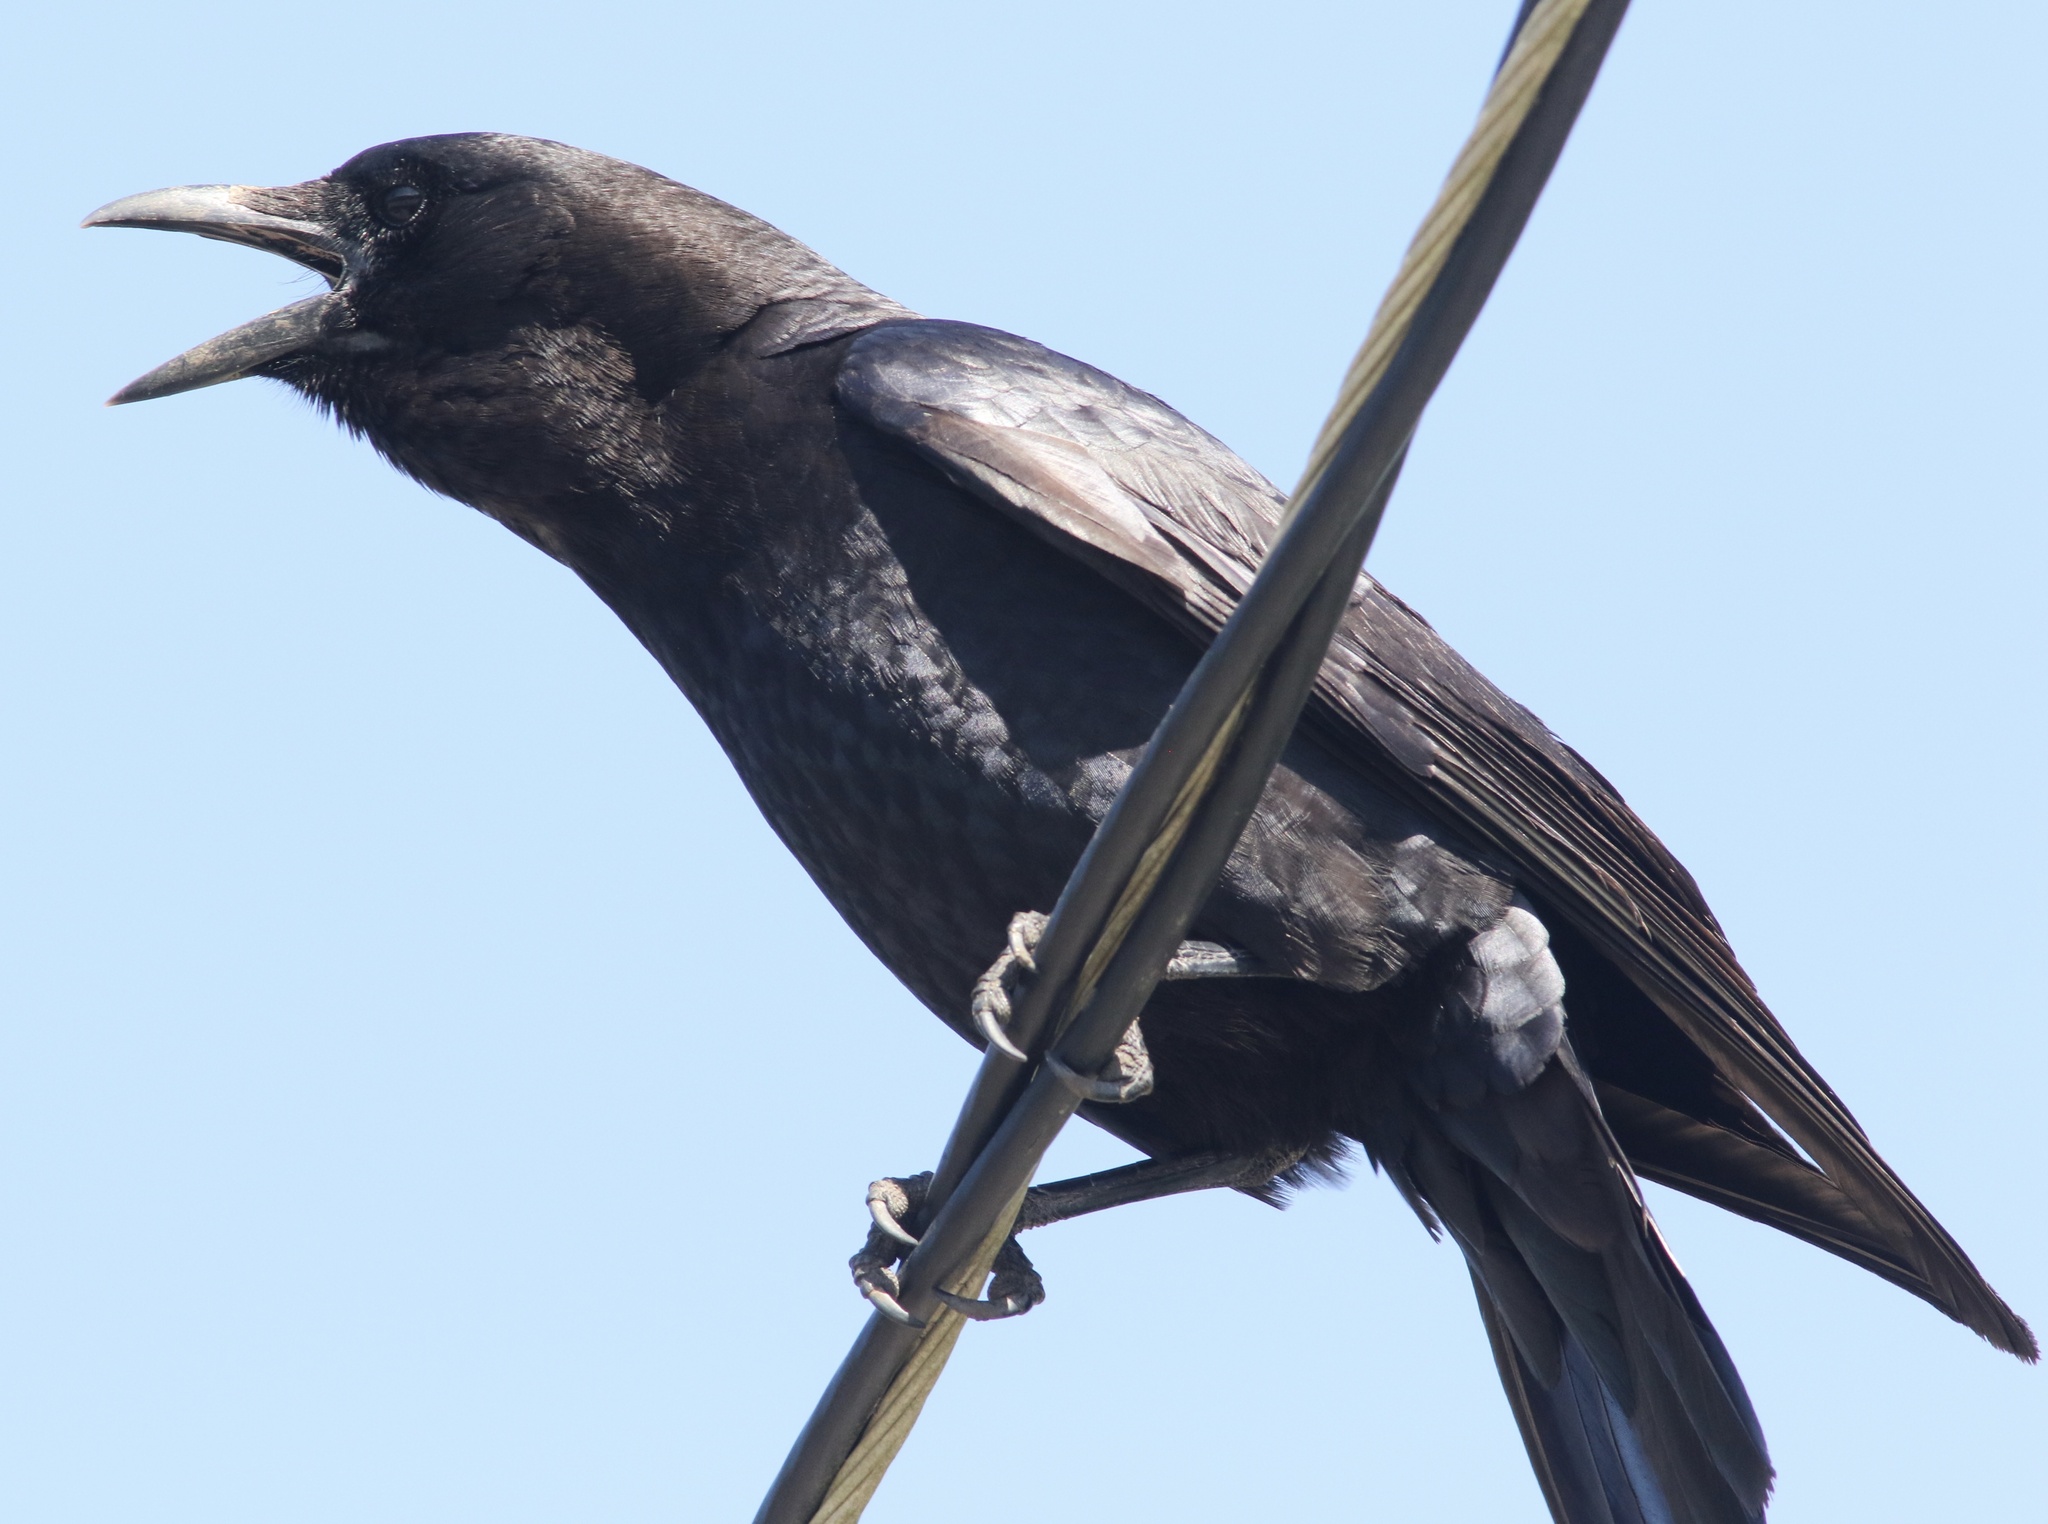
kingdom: Animalia
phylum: Chordata
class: Aves
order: Passeriformes
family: Corvidae
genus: Corvus
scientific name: Corvus brachyrhynchos
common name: American crow
